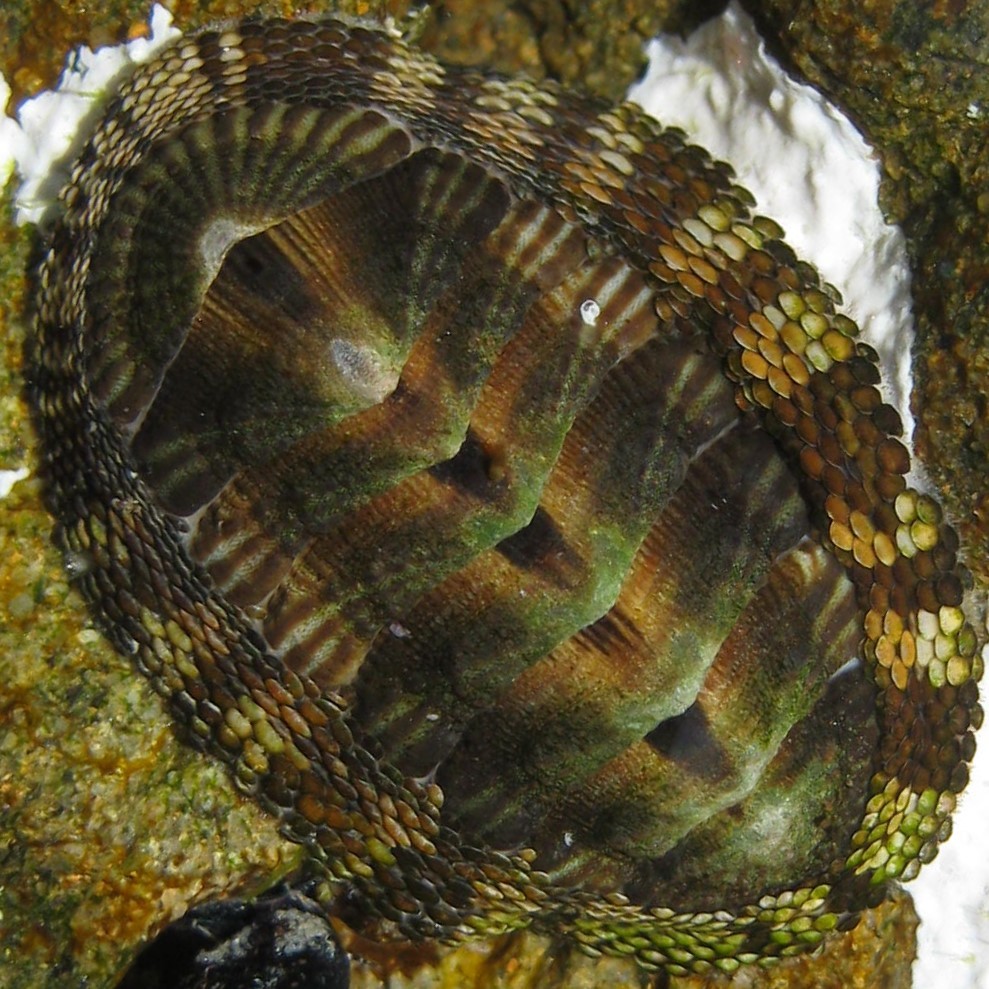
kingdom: Animalia
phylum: Mollusca
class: Polyplacophora
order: Chitonida
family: Chitonidae
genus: Sypharochiton
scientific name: Sypharochiton pelliserpentis
